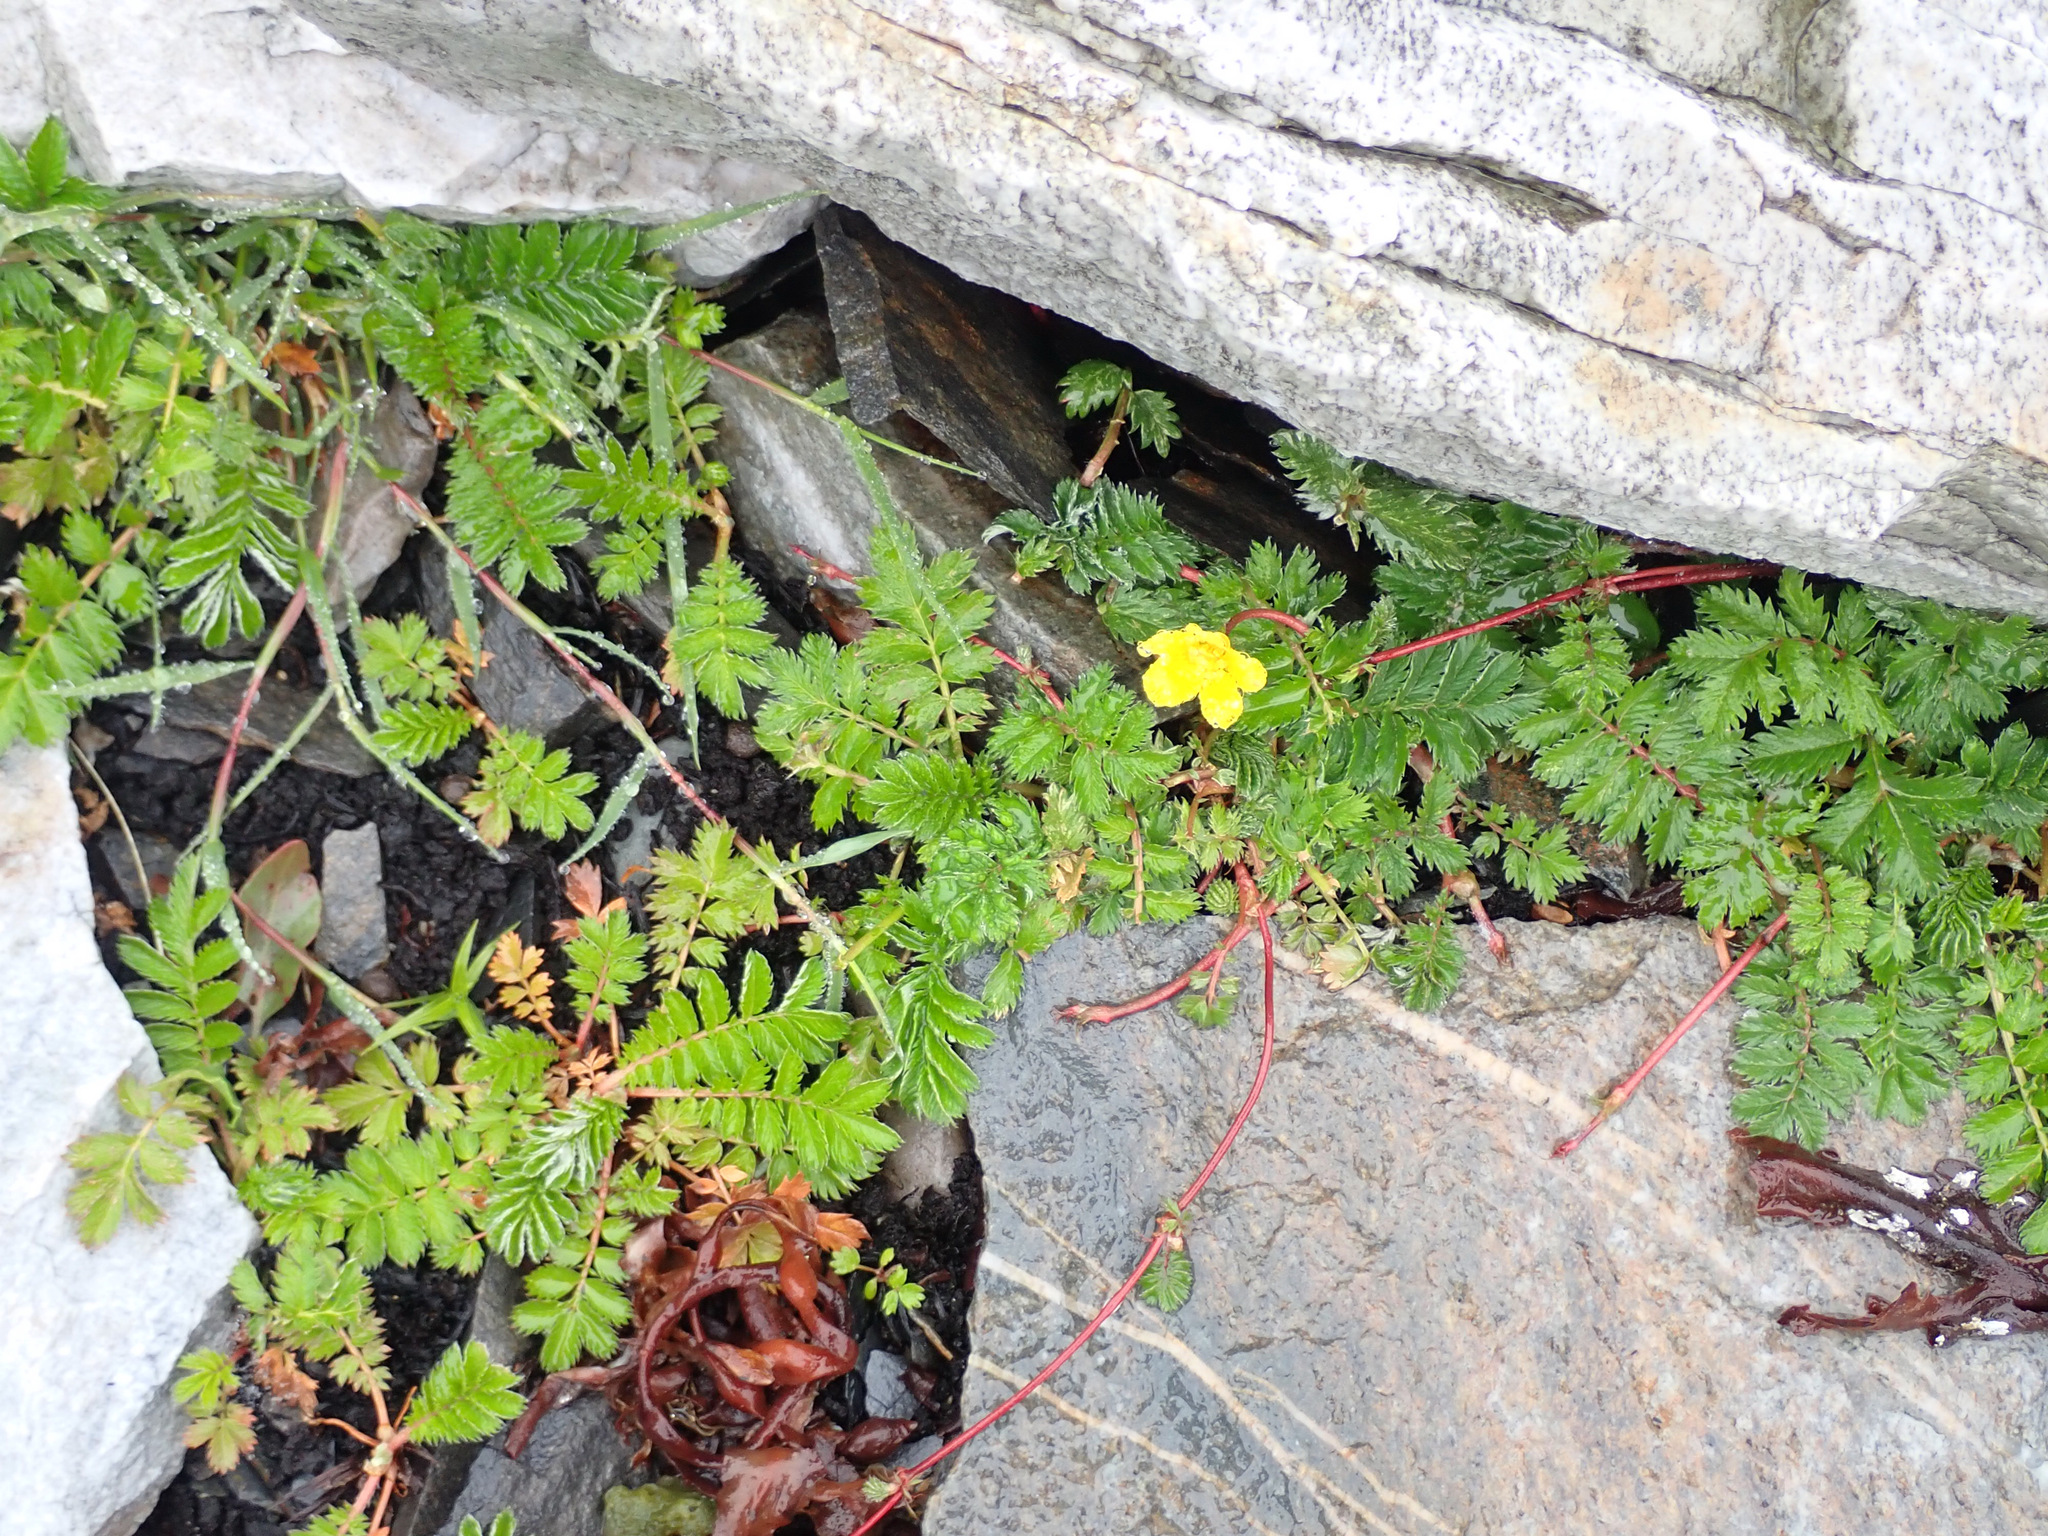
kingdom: Plantae
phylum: Tracheophyta
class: Magnoliopsida
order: Rosales
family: Rosaceae
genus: Argentina
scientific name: Argentina anserina
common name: Common silverweed
